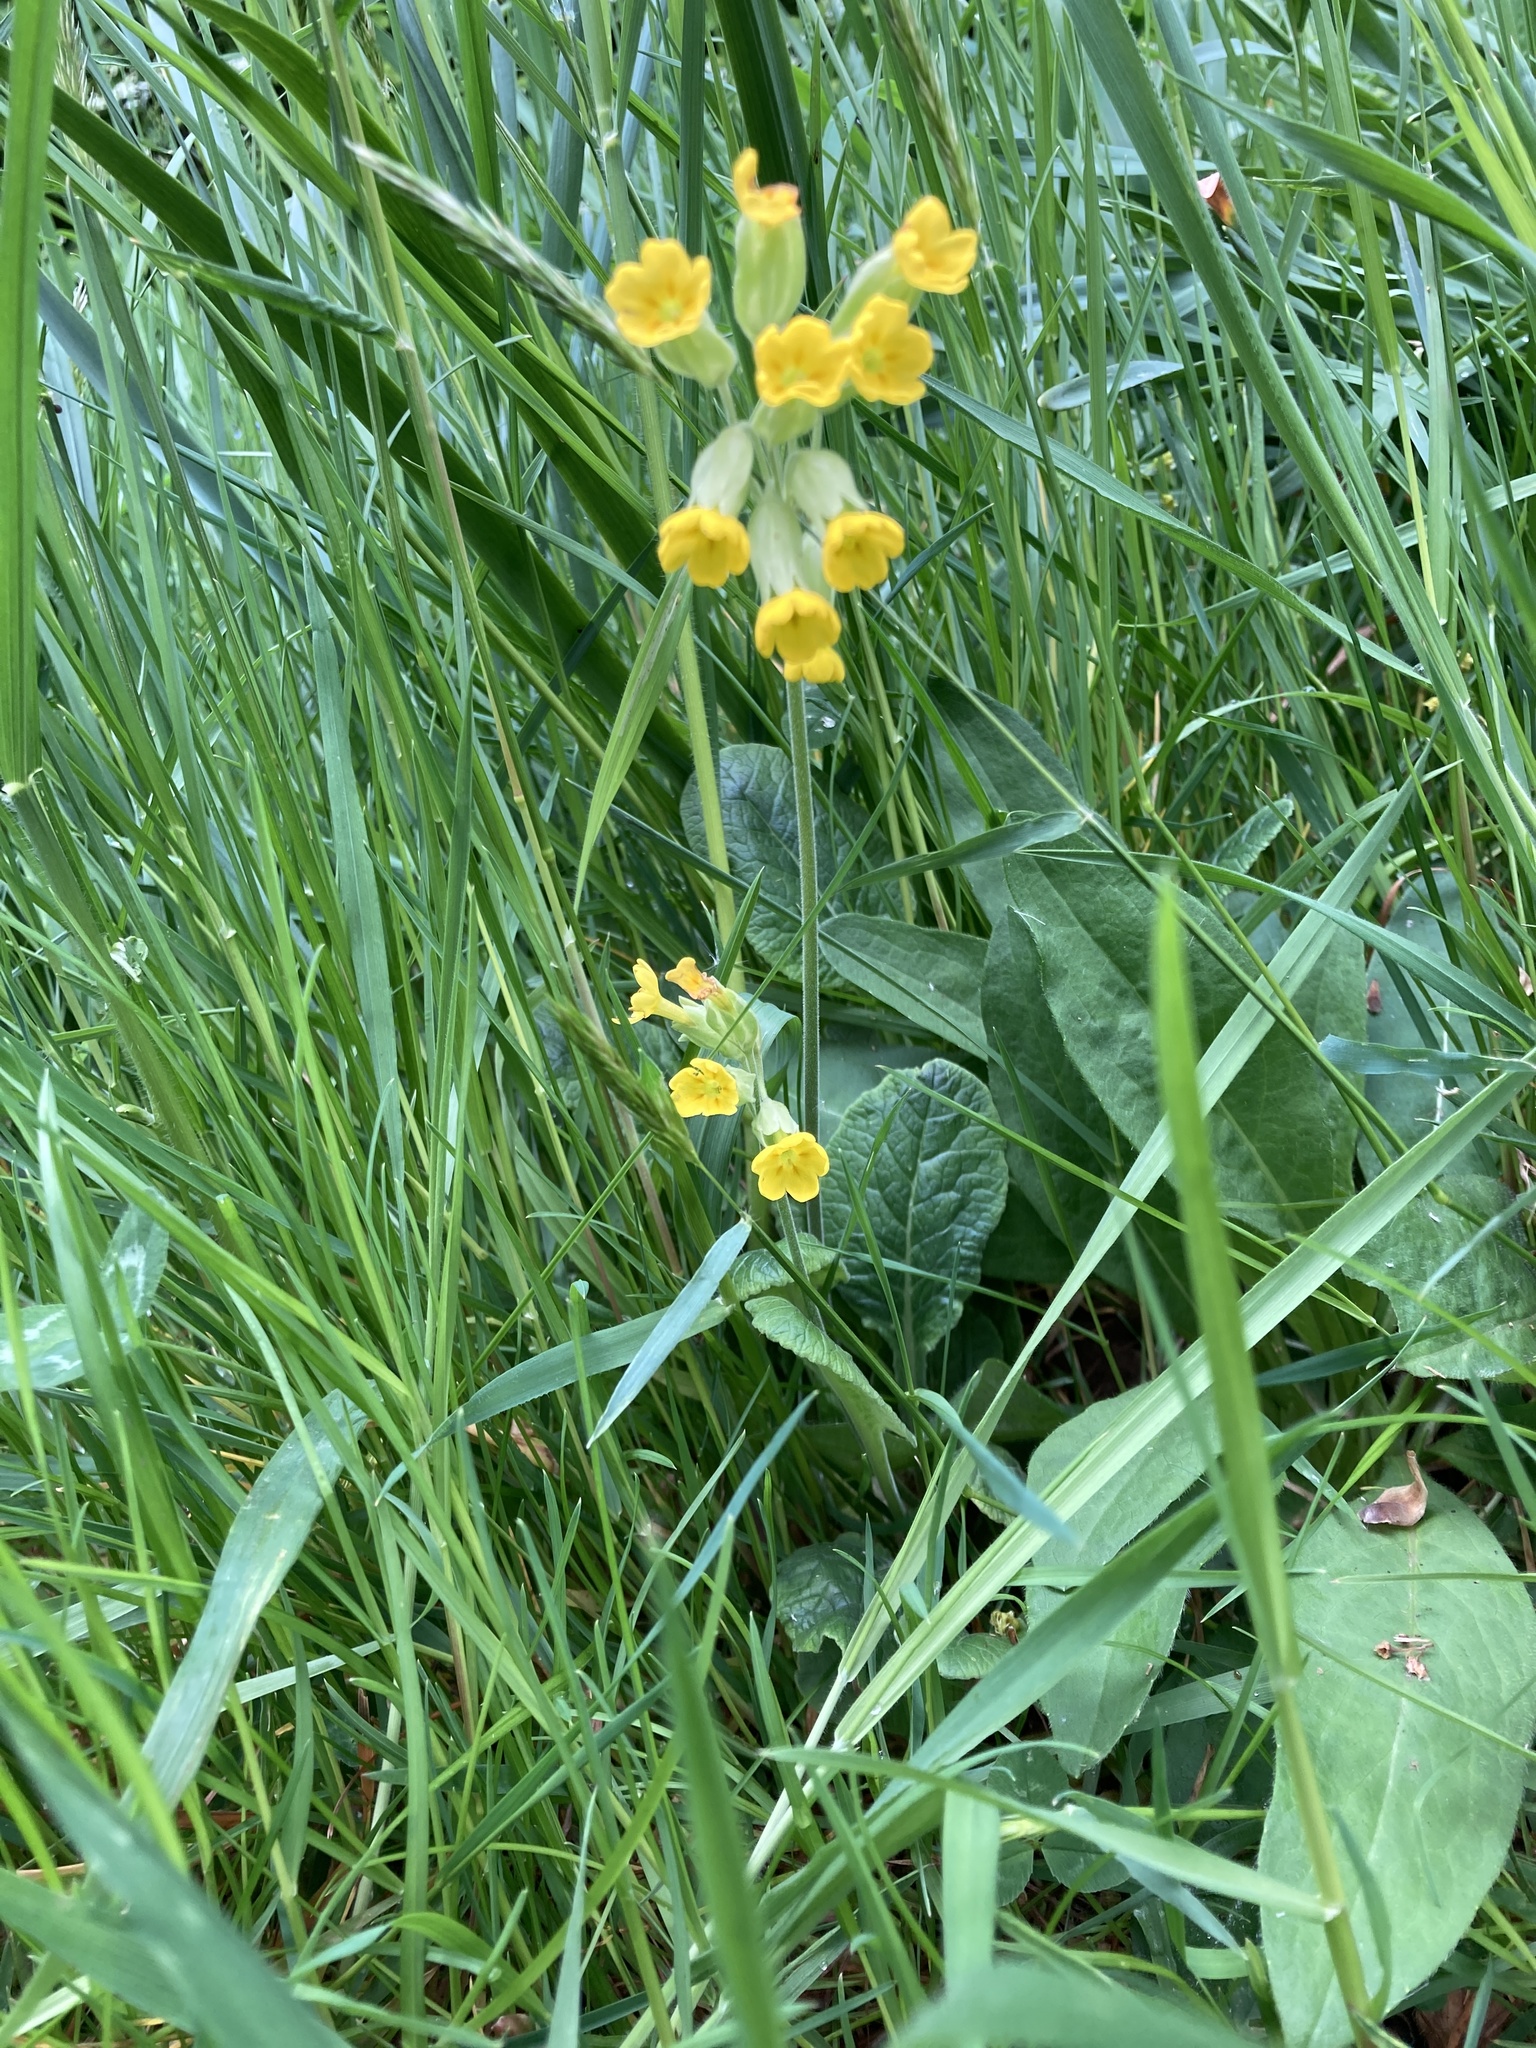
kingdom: Plantae
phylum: Tracheophyta
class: Magnoliopsida
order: Ericales
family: Primulaceae
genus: Primula
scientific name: Primula veris
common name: Cowslip
